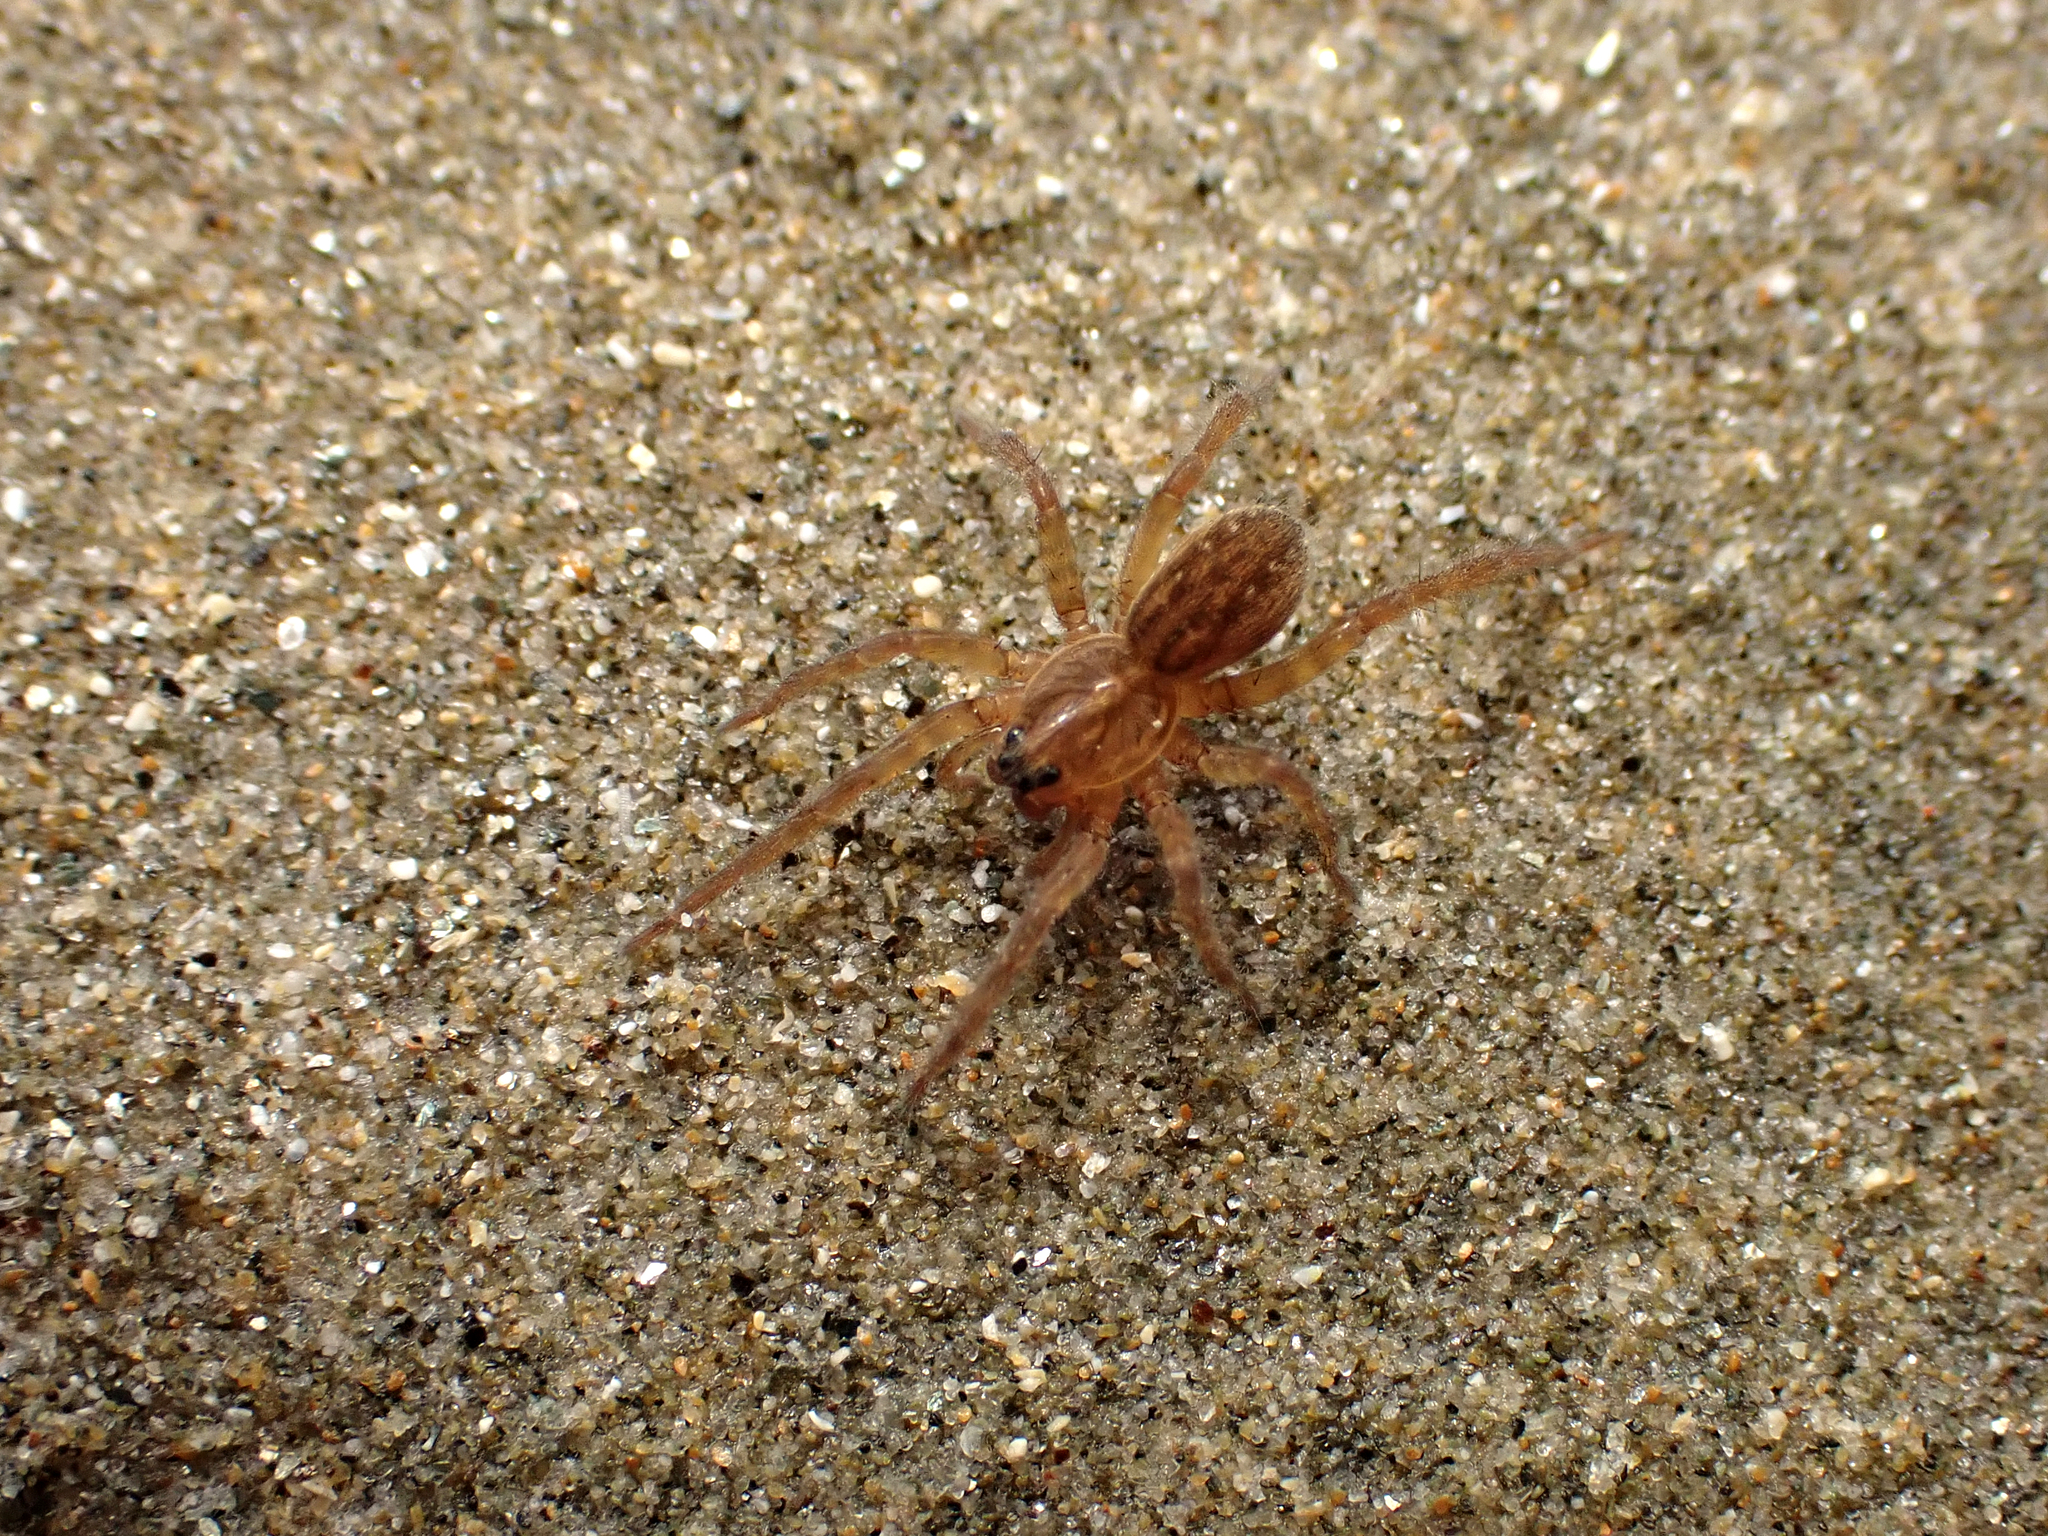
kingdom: Animalia
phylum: Arthropoda
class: Arachnida
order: Araneae
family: Lycosidae
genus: Allotrochosina
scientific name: Allotrochosina schauinslandi
